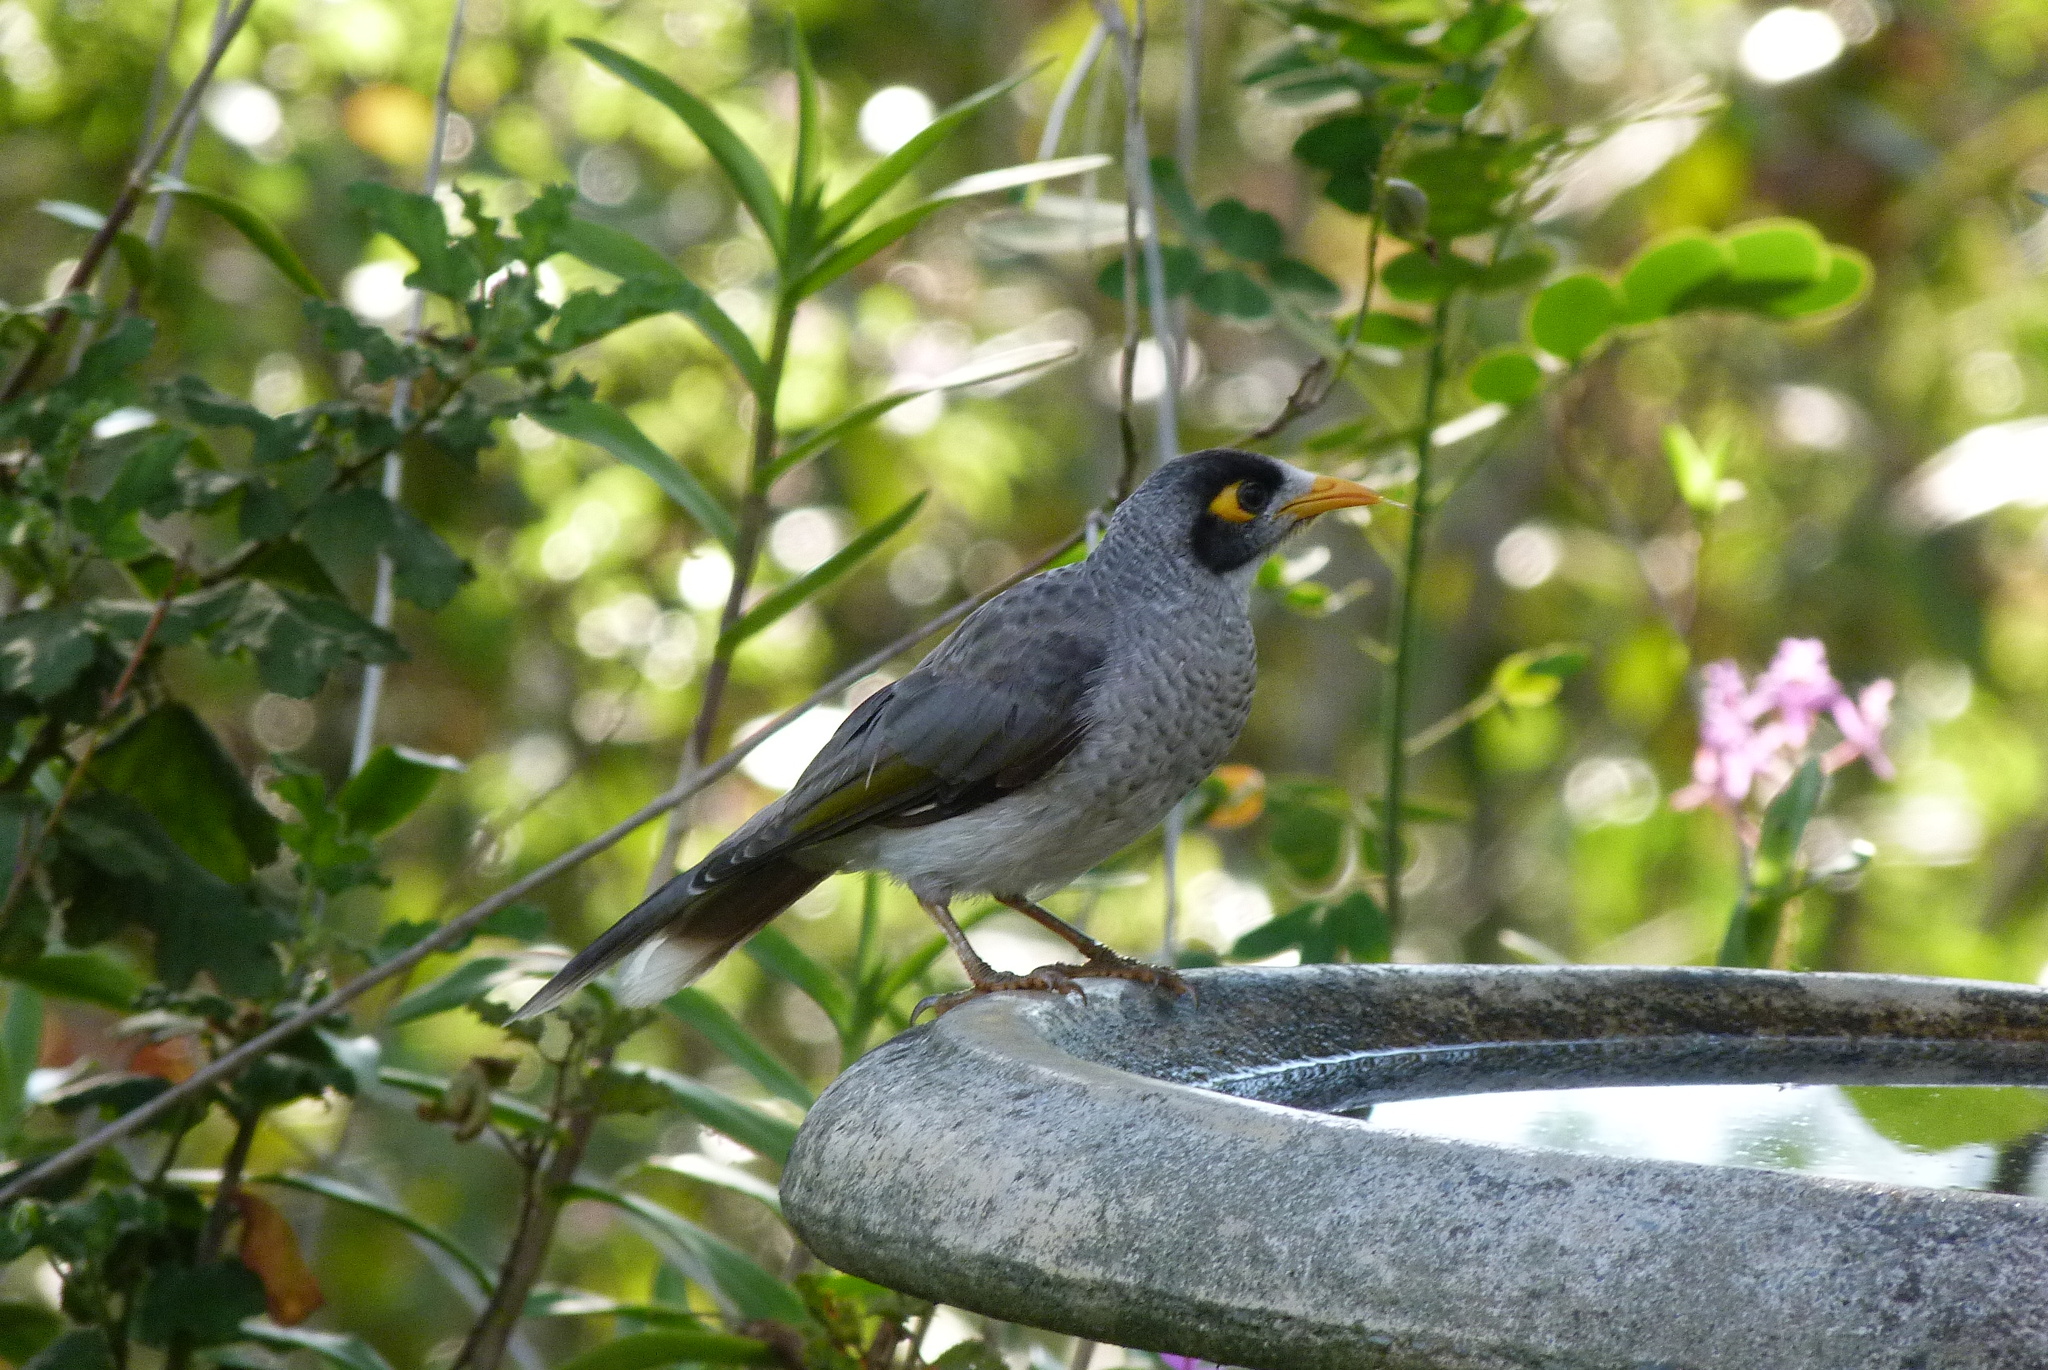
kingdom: Animalia
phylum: Chordata
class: Aves
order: Passeriformes
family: Meliphagidae
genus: Manorina
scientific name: Manorina melanocephala
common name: Noisy miner
